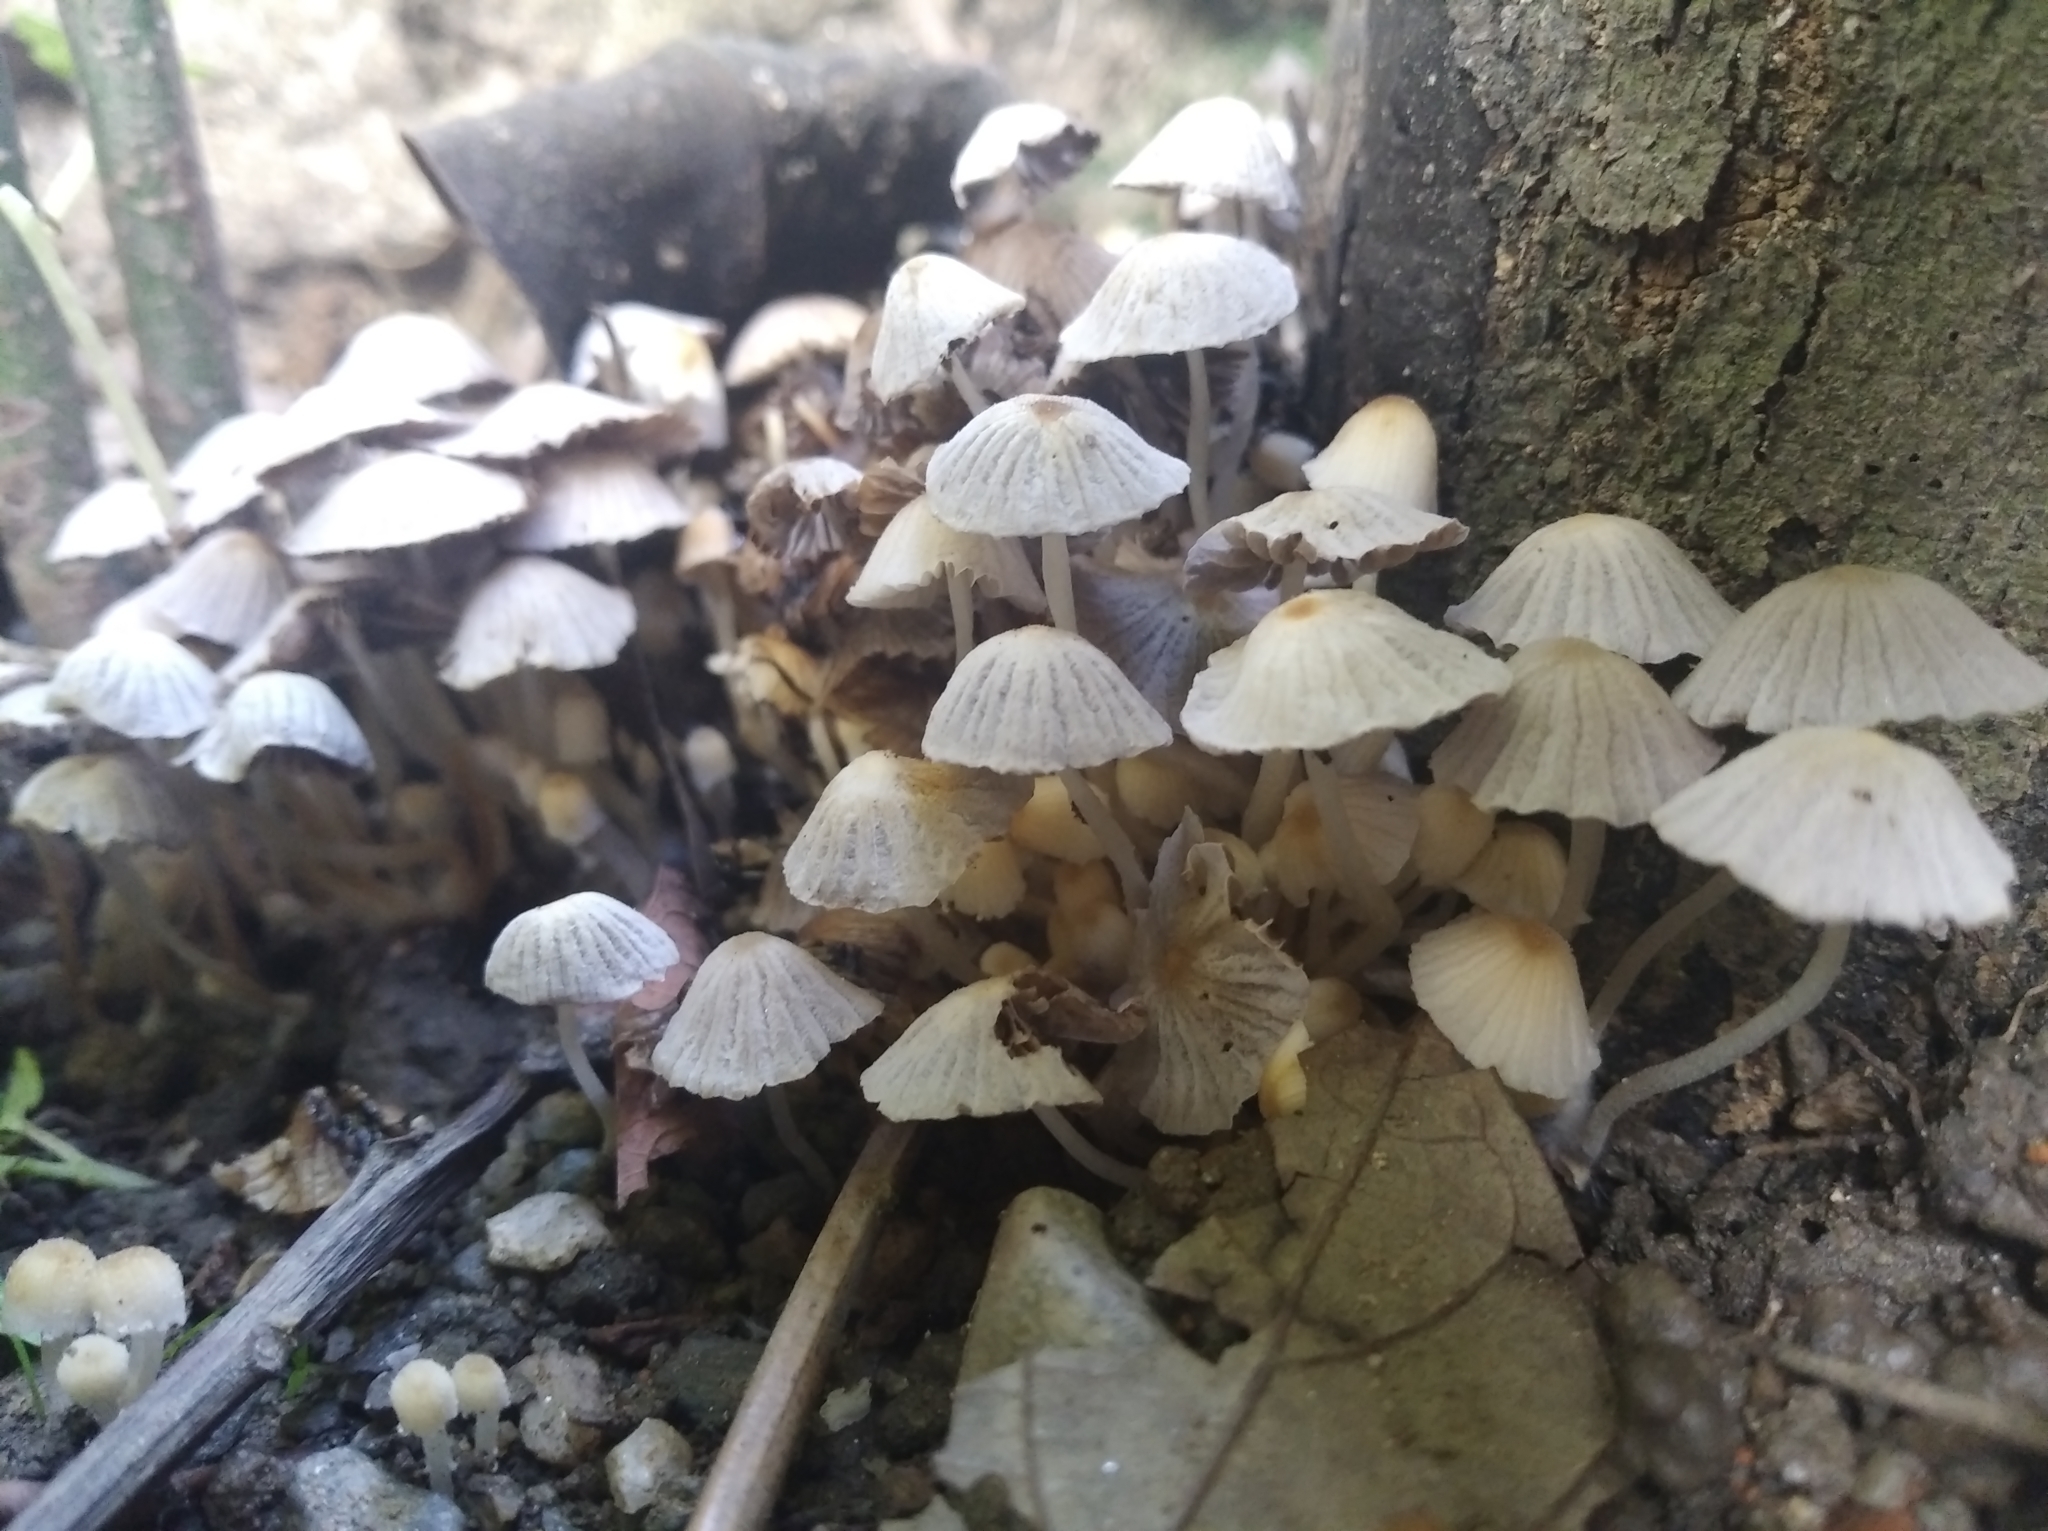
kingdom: Fungi
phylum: Basidiomycota
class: Agaricomycetes
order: Agaricales
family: Psathyrellaceae
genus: Coprinellus
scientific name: Coprinellus disseminatus
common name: Fairies' bonnets
